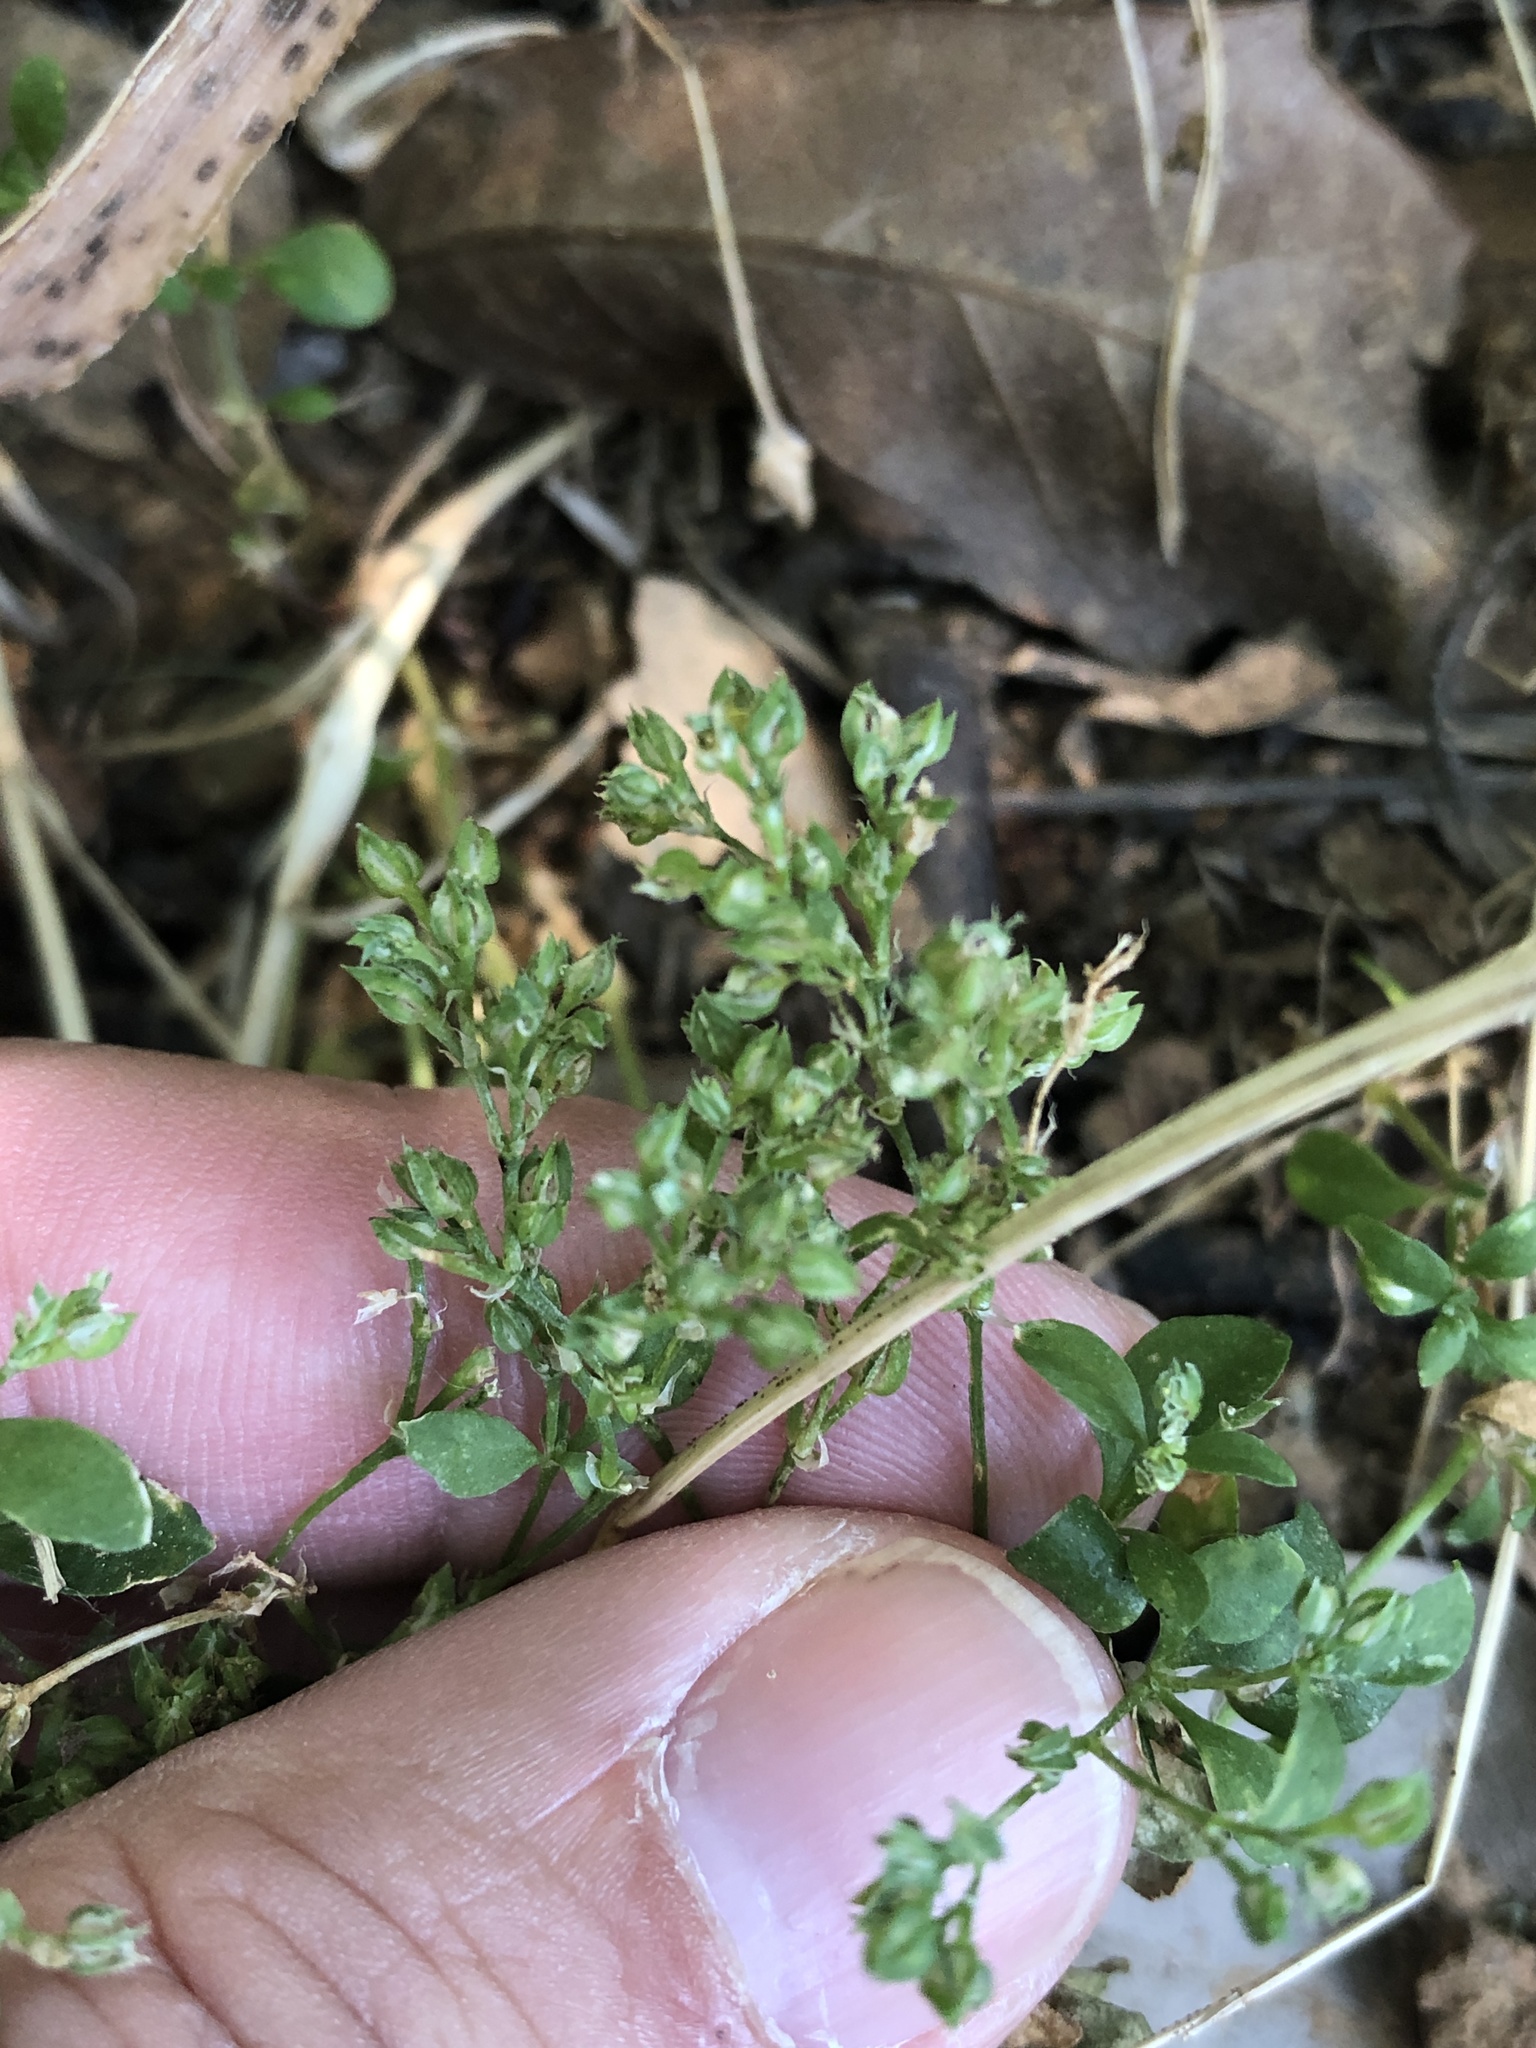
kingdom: Plantae
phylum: Tracheophyta
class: Magnoliopsida
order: Caryophyllales
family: Caryophyllaceae
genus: Polycarpon
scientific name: Polycarpon tetraphyllum
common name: Four-leaved all-seed
